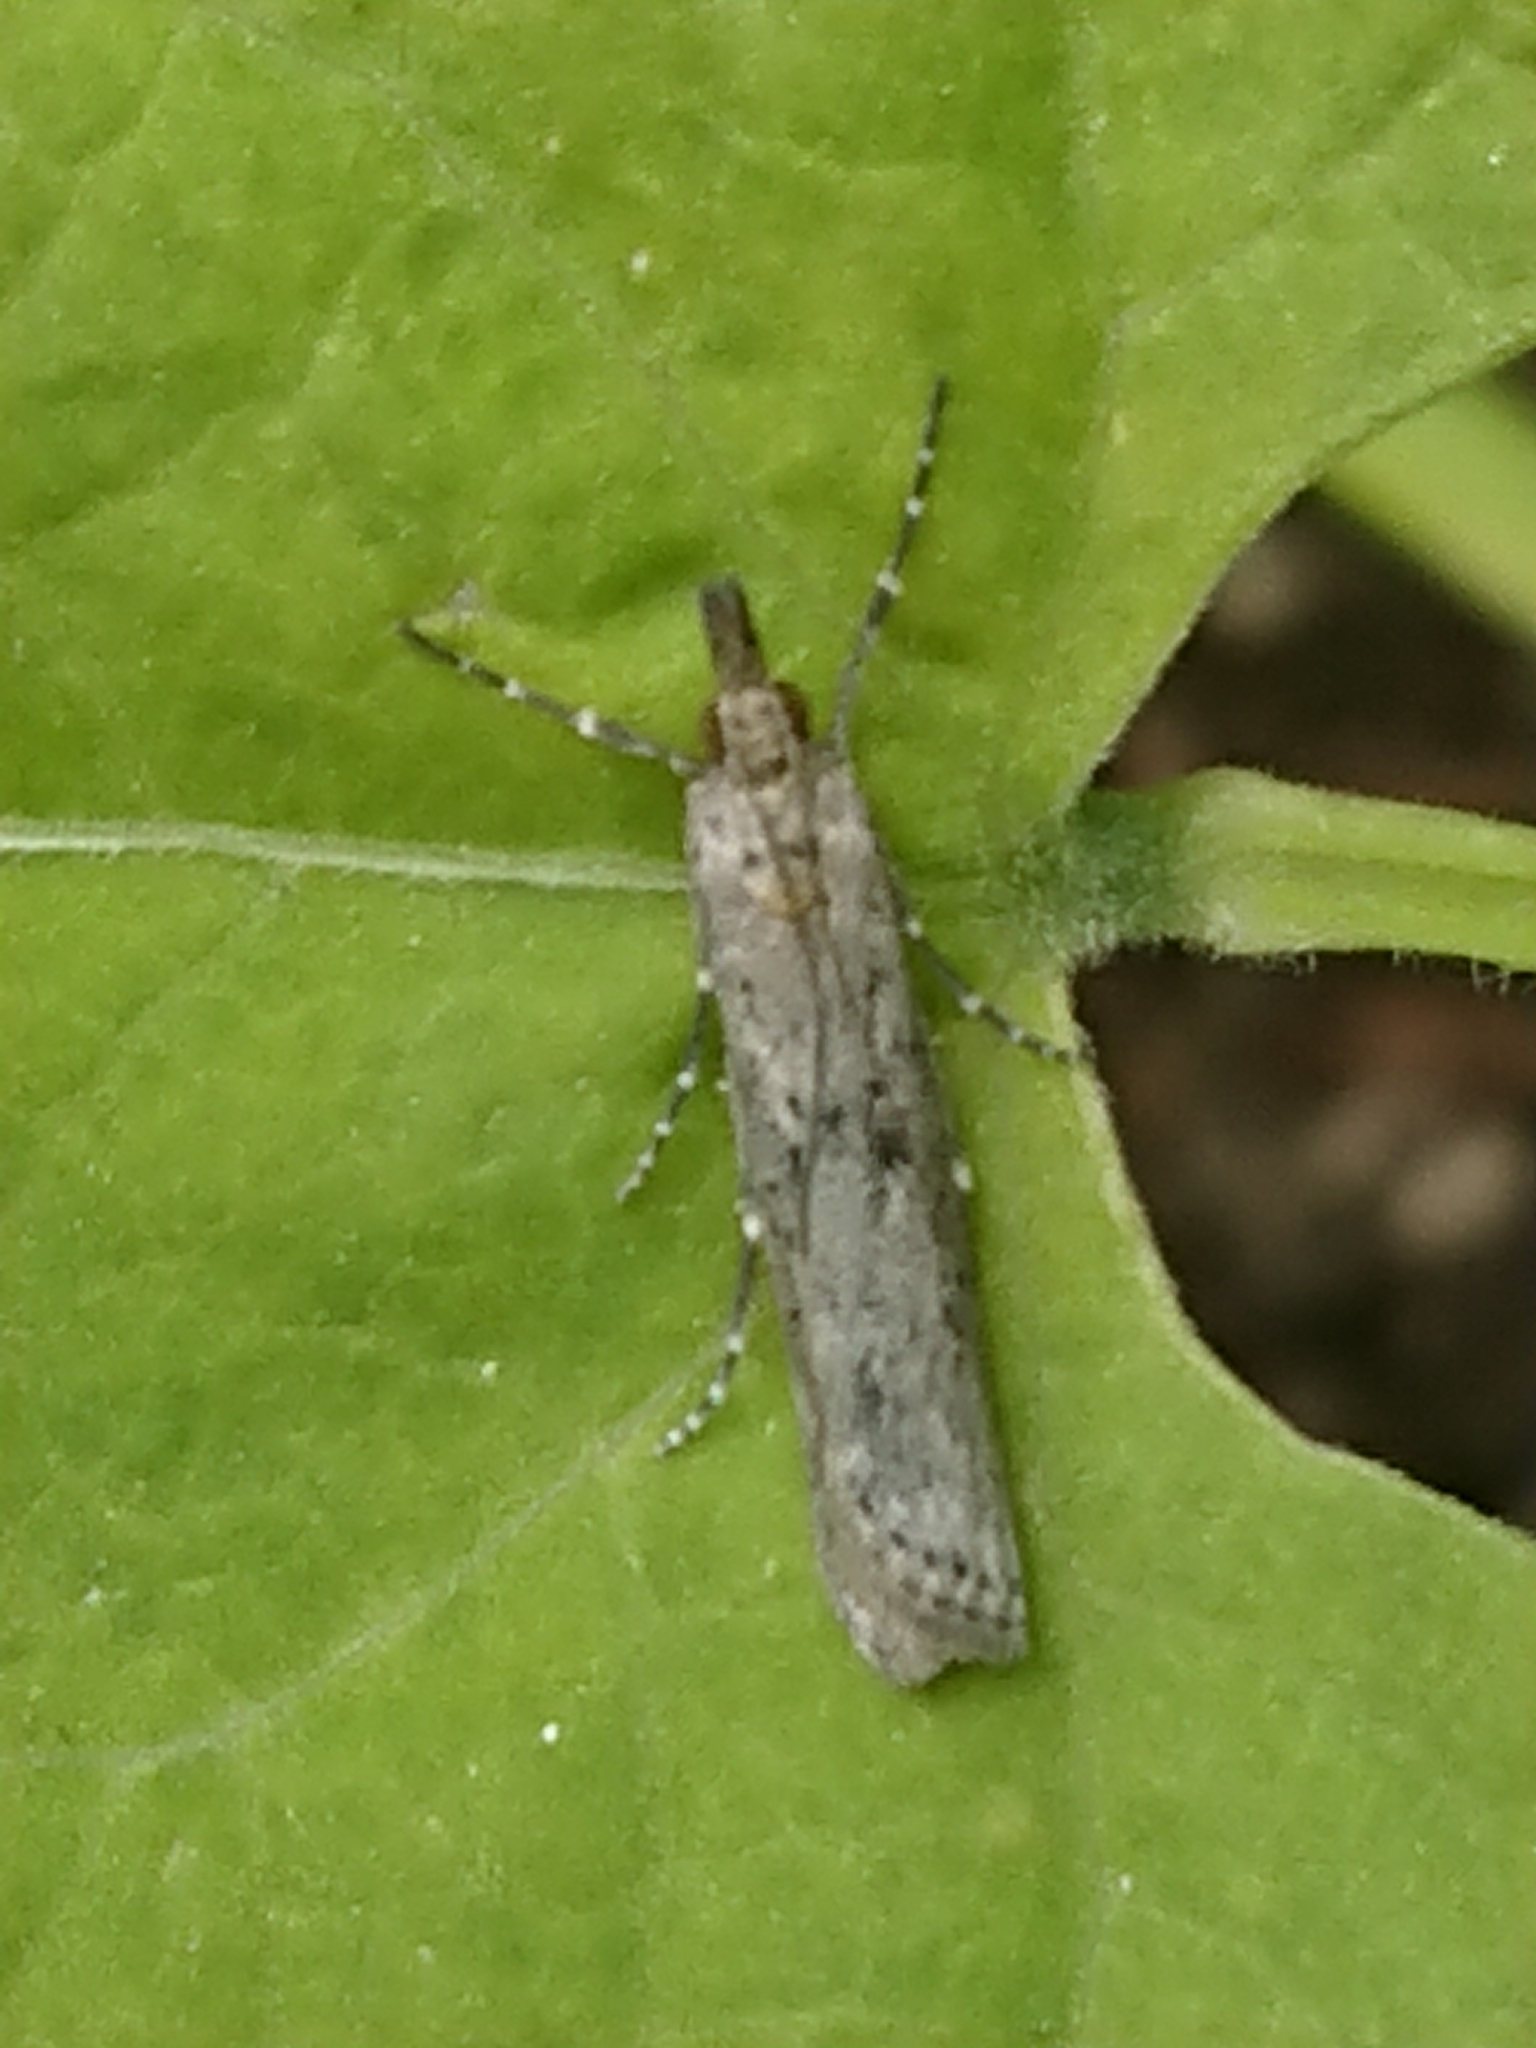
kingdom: Animalia
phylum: Arthropoda
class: Insecta
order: Lepidoptera
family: Crambidae
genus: Eudonia
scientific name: Eudonia leptalea
